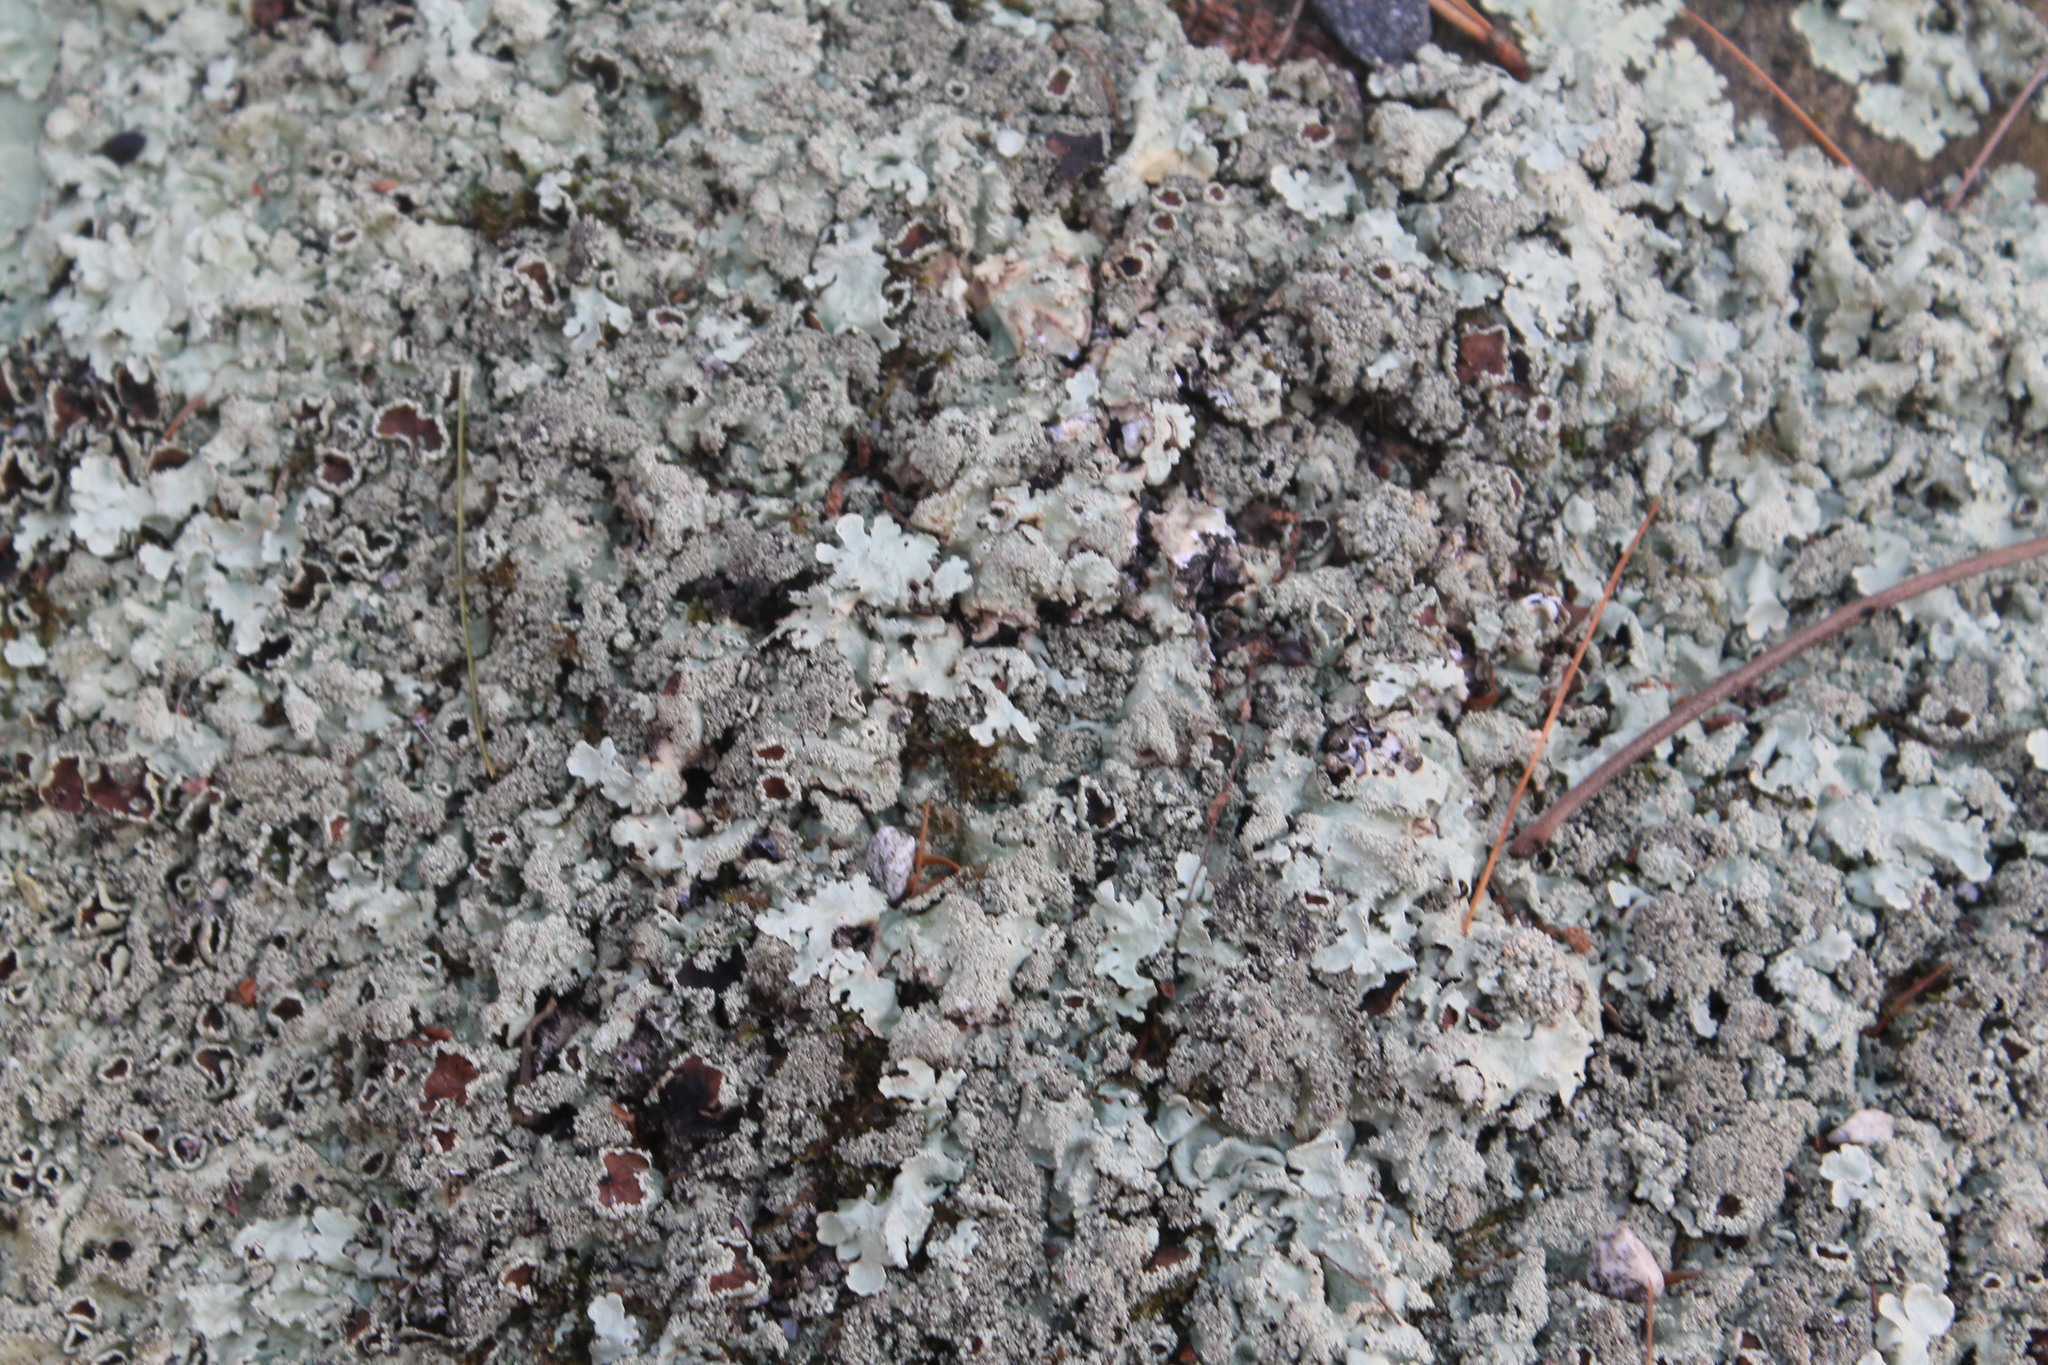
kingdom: Fungi
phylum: Ascomycota
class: Lecanoromycetes
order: Lecanorales
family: Parmeliaceae
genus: Flavoparmelia
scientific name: Flavoparmelia baltimorensis
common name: Rock greenshield
